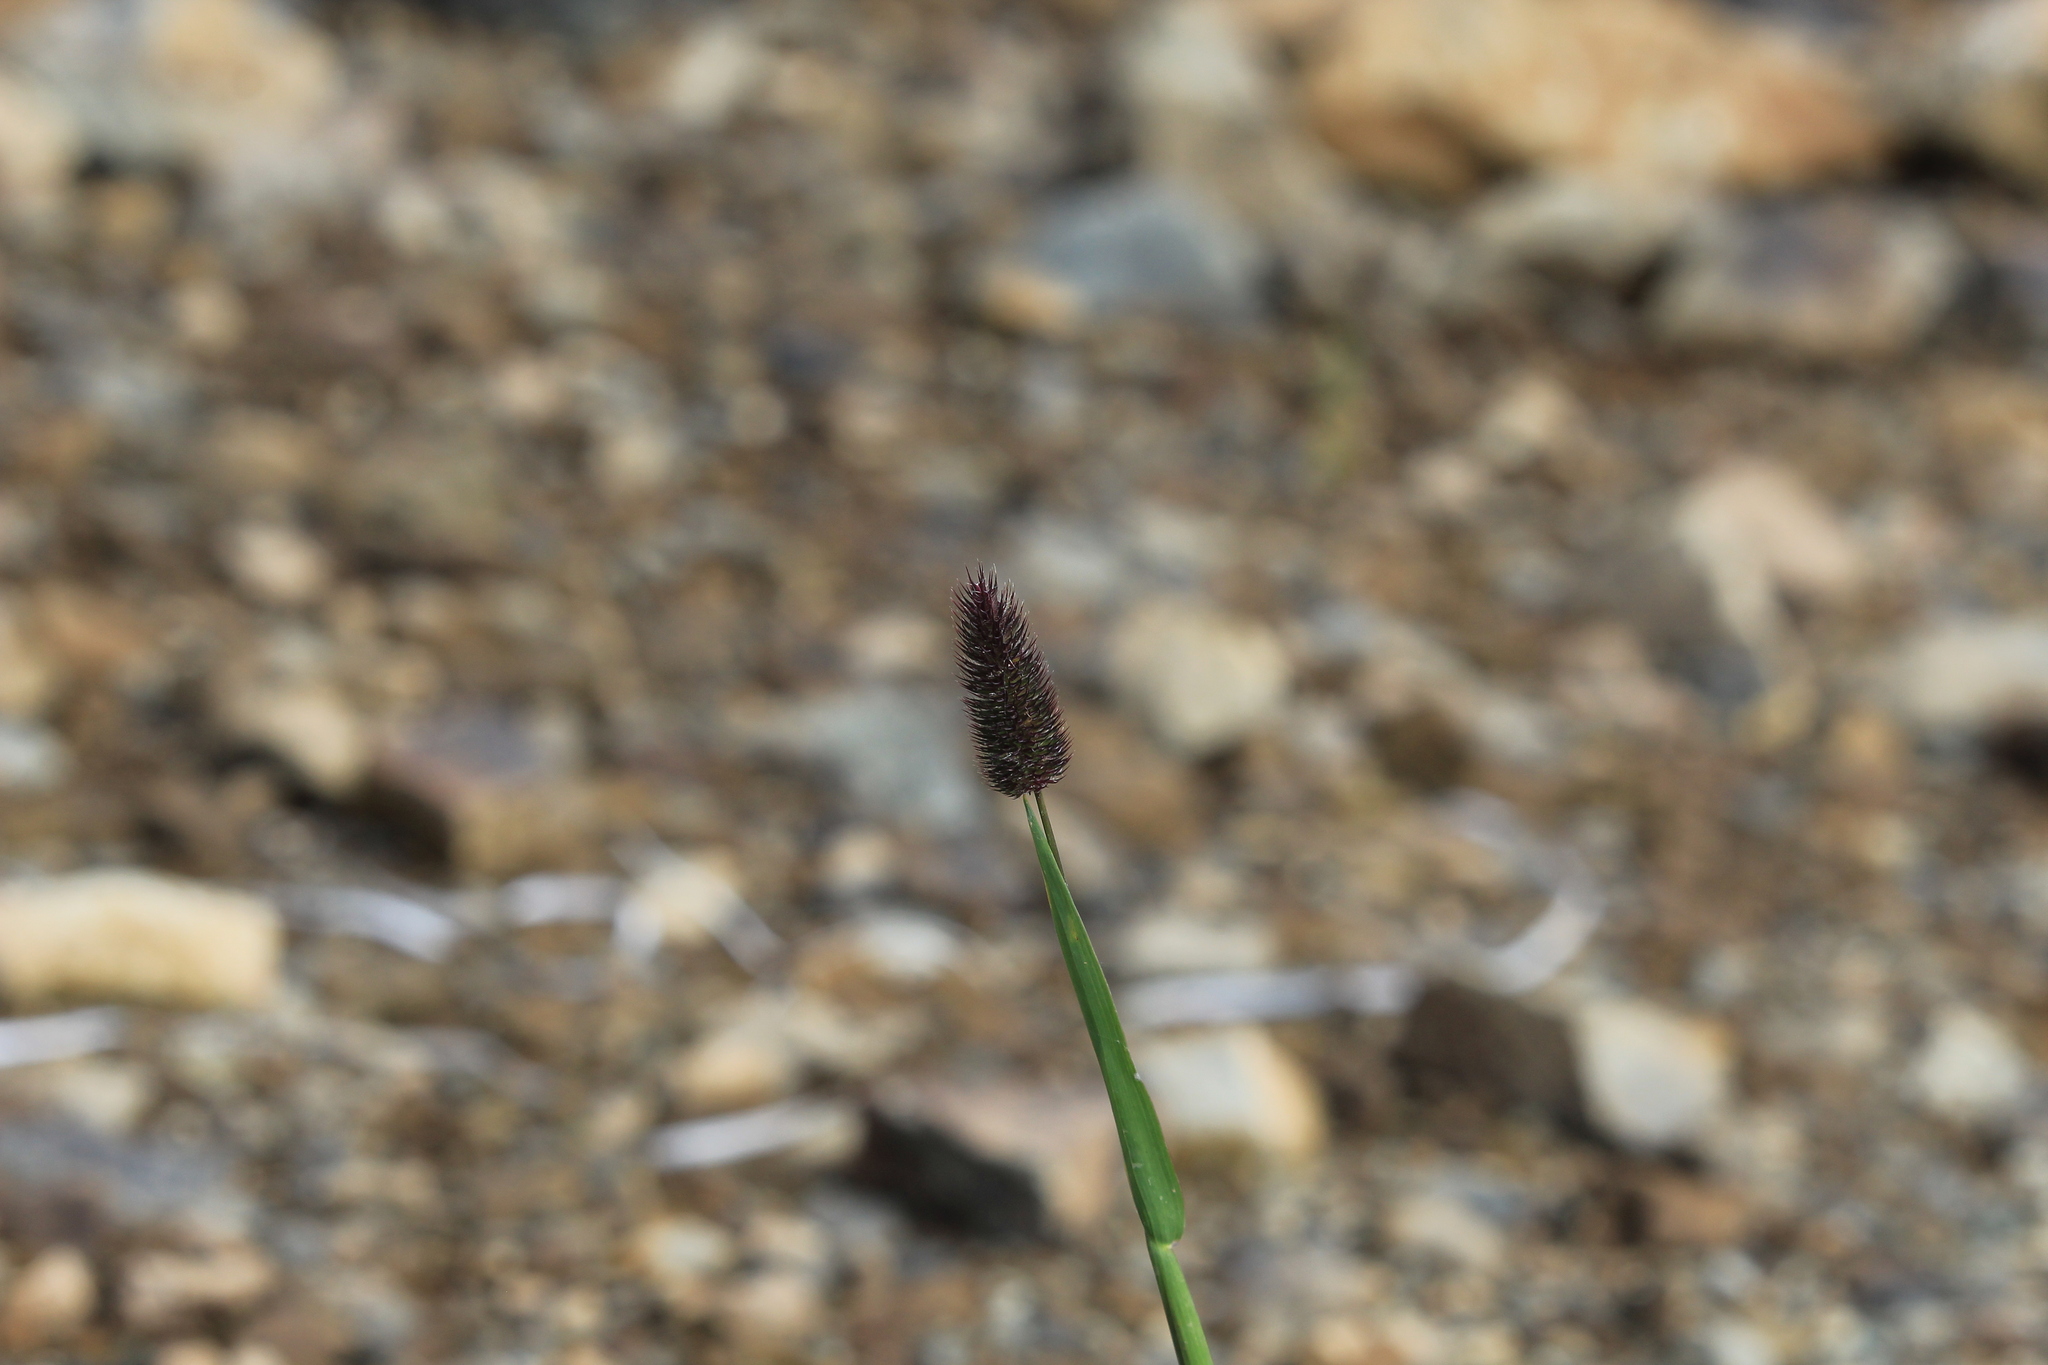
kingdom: Plantae
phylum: Tracheophyta
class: Liliopsida
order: Poales
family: Poaceae
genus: Phleum
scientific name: Phleum alpinum
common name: Alpine cat's-tail
